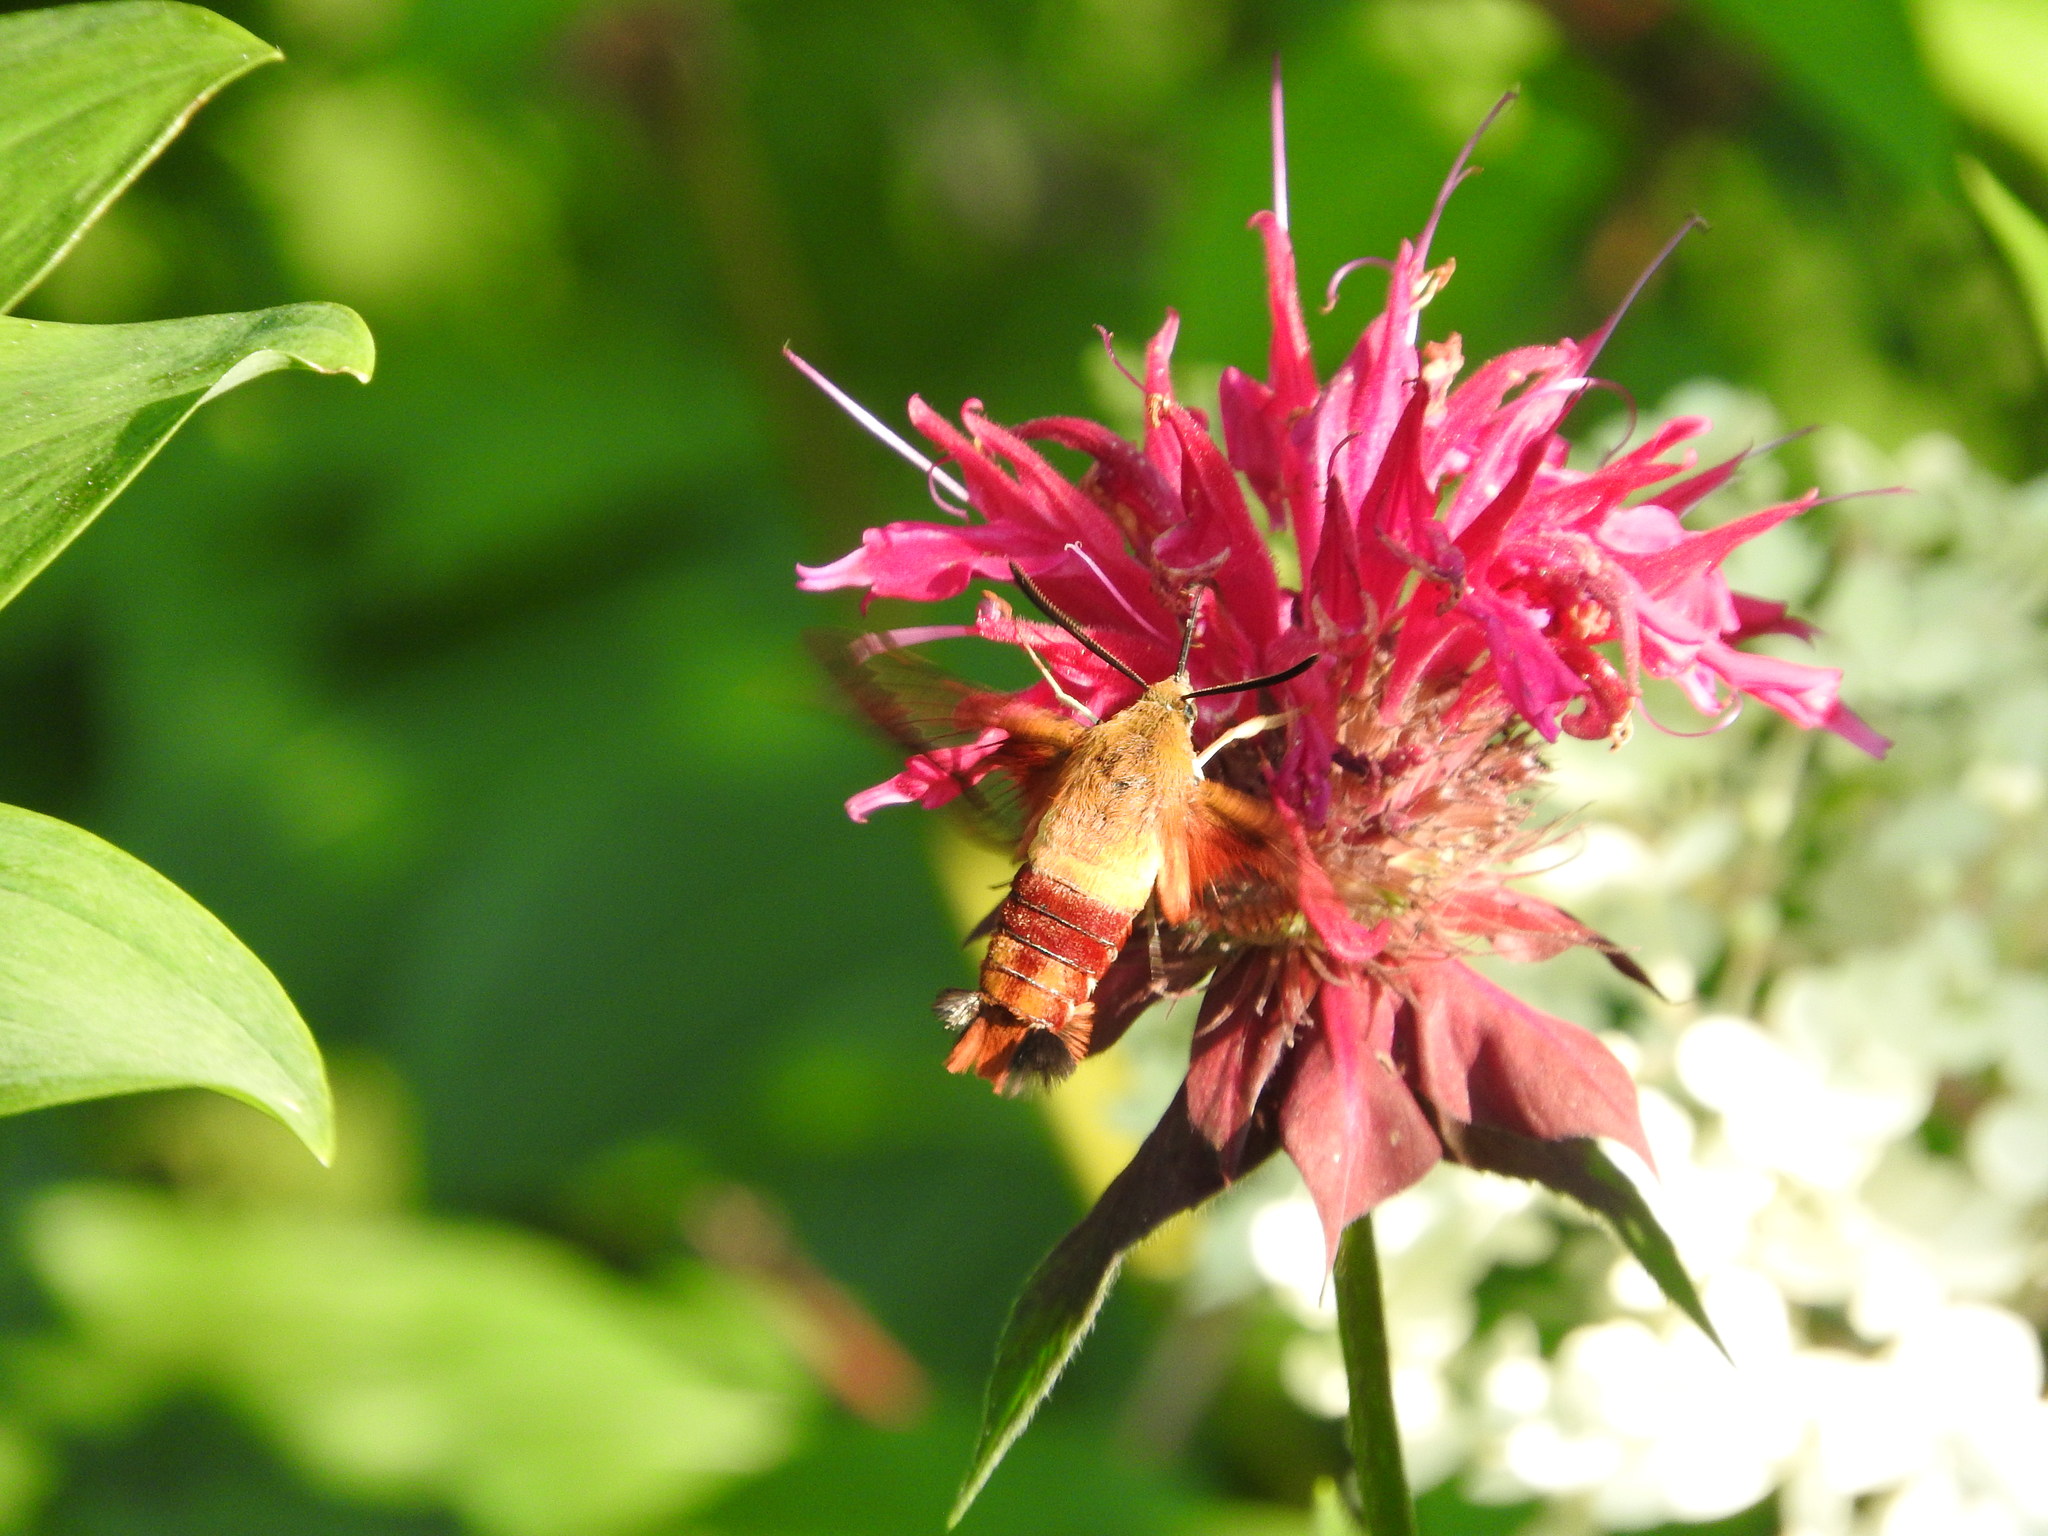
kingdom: Animalia
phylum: Arthropoda
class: Insecta
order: Lepidoptera
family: Sphingidae
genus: Hemaris
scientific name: Hemaris thysbe
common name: Common clear-wing
